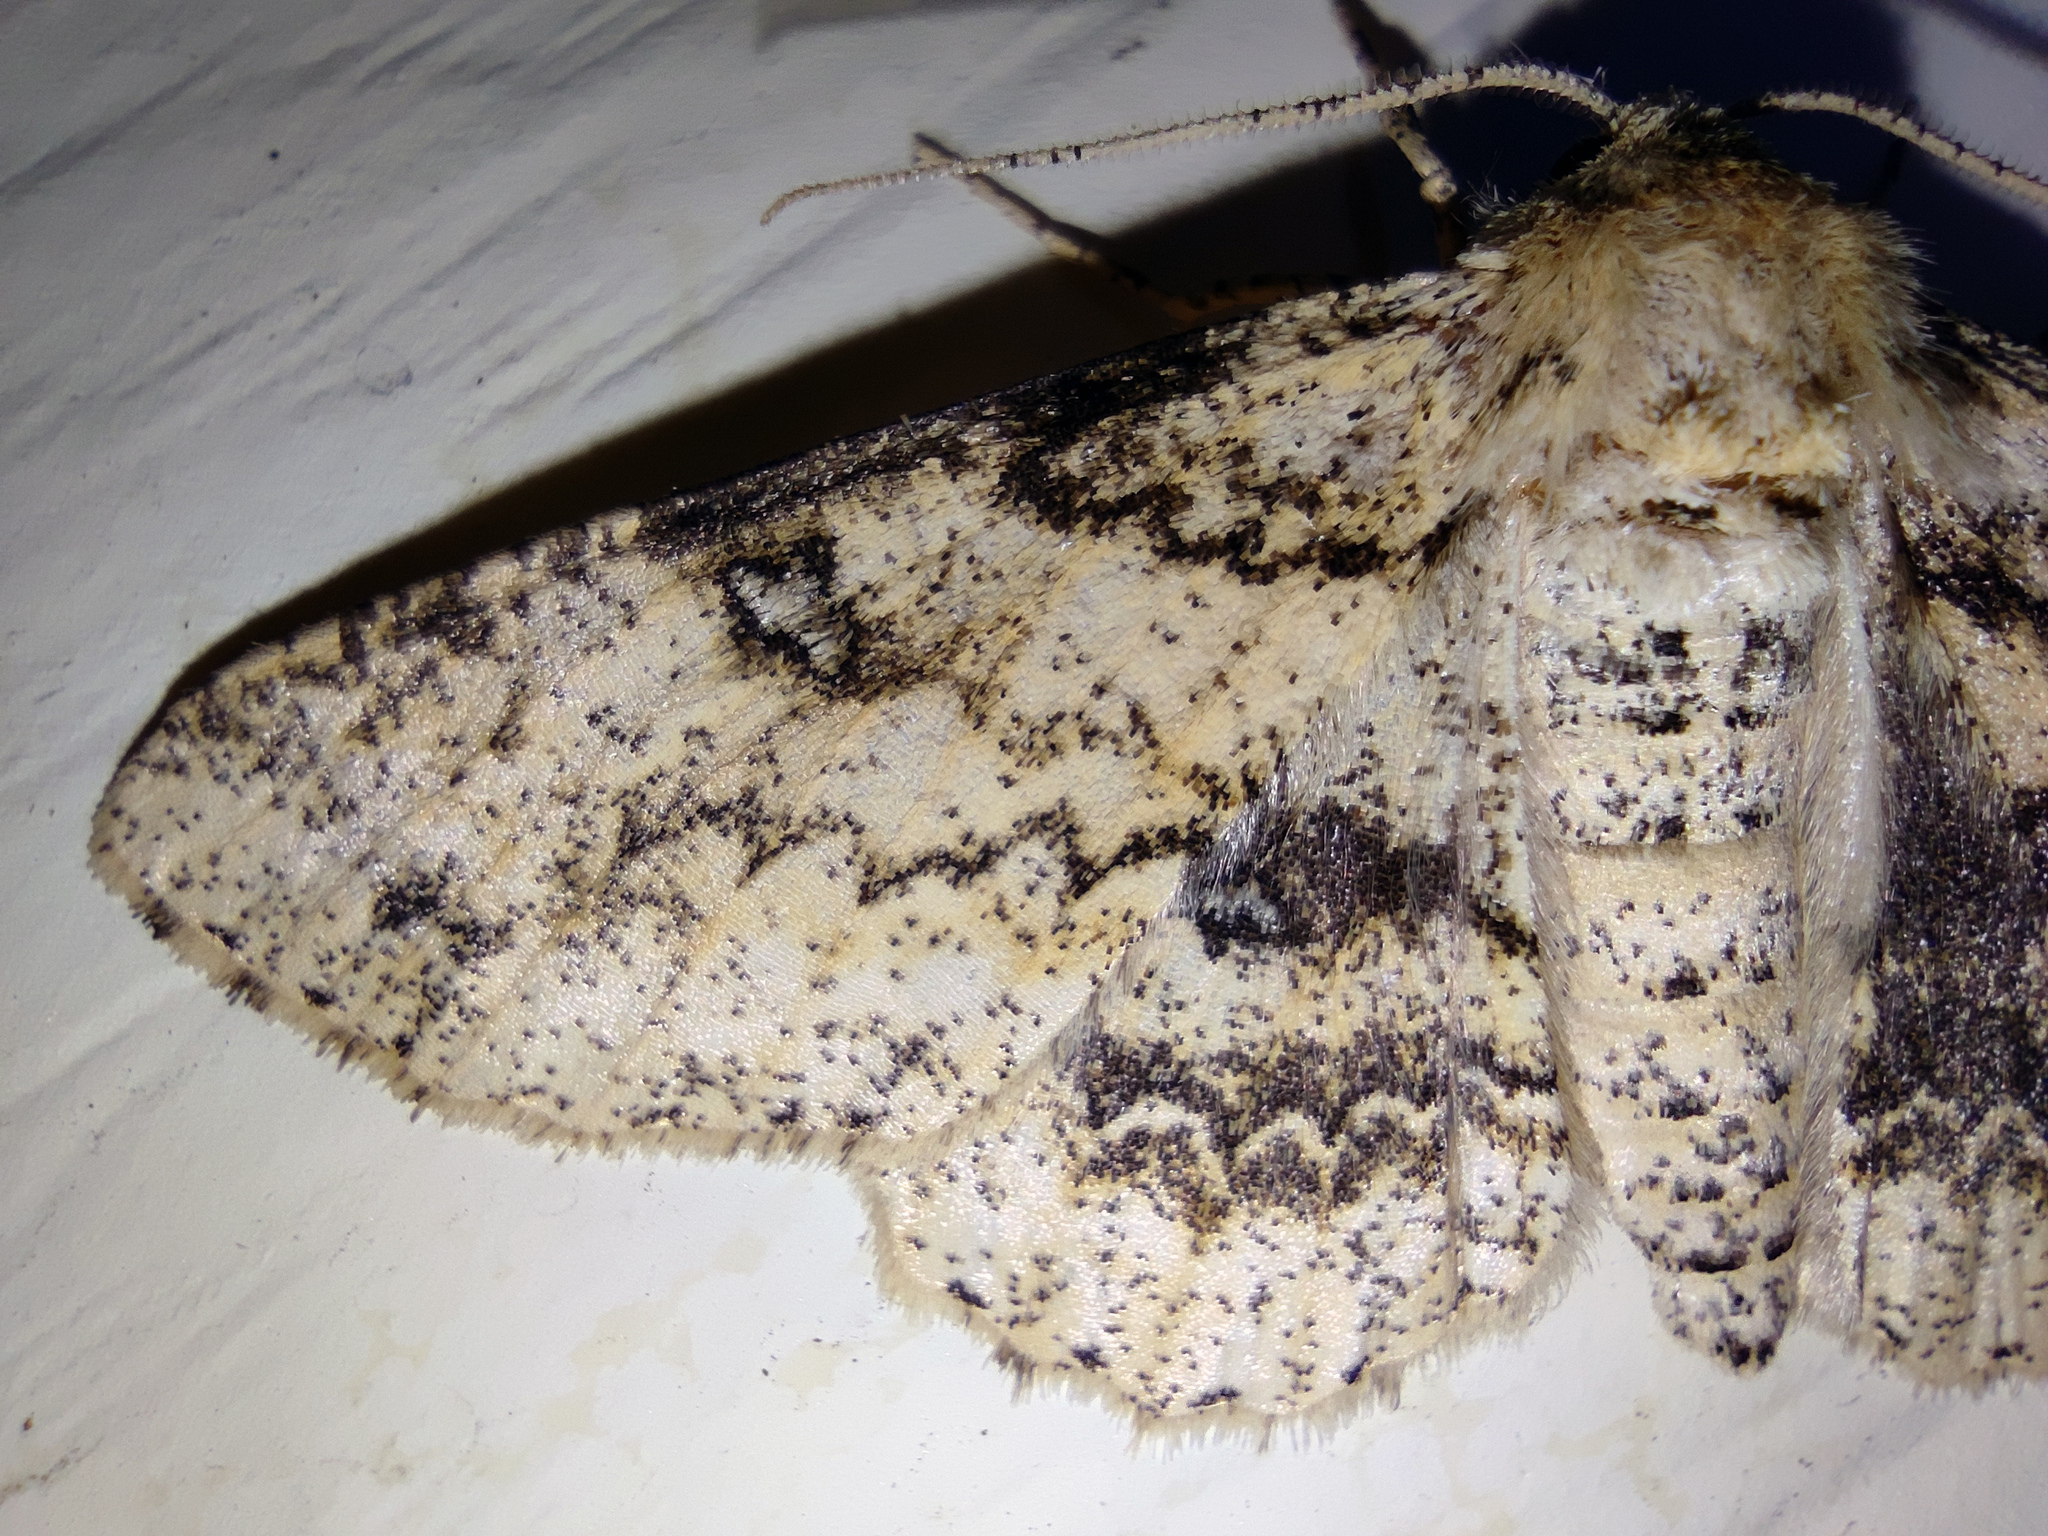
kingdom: Animalia
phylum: Arthropoda
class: Insecta
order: Lepidoptera
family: Geometridae
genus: Ascotis
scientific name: Ascotis selenaria
